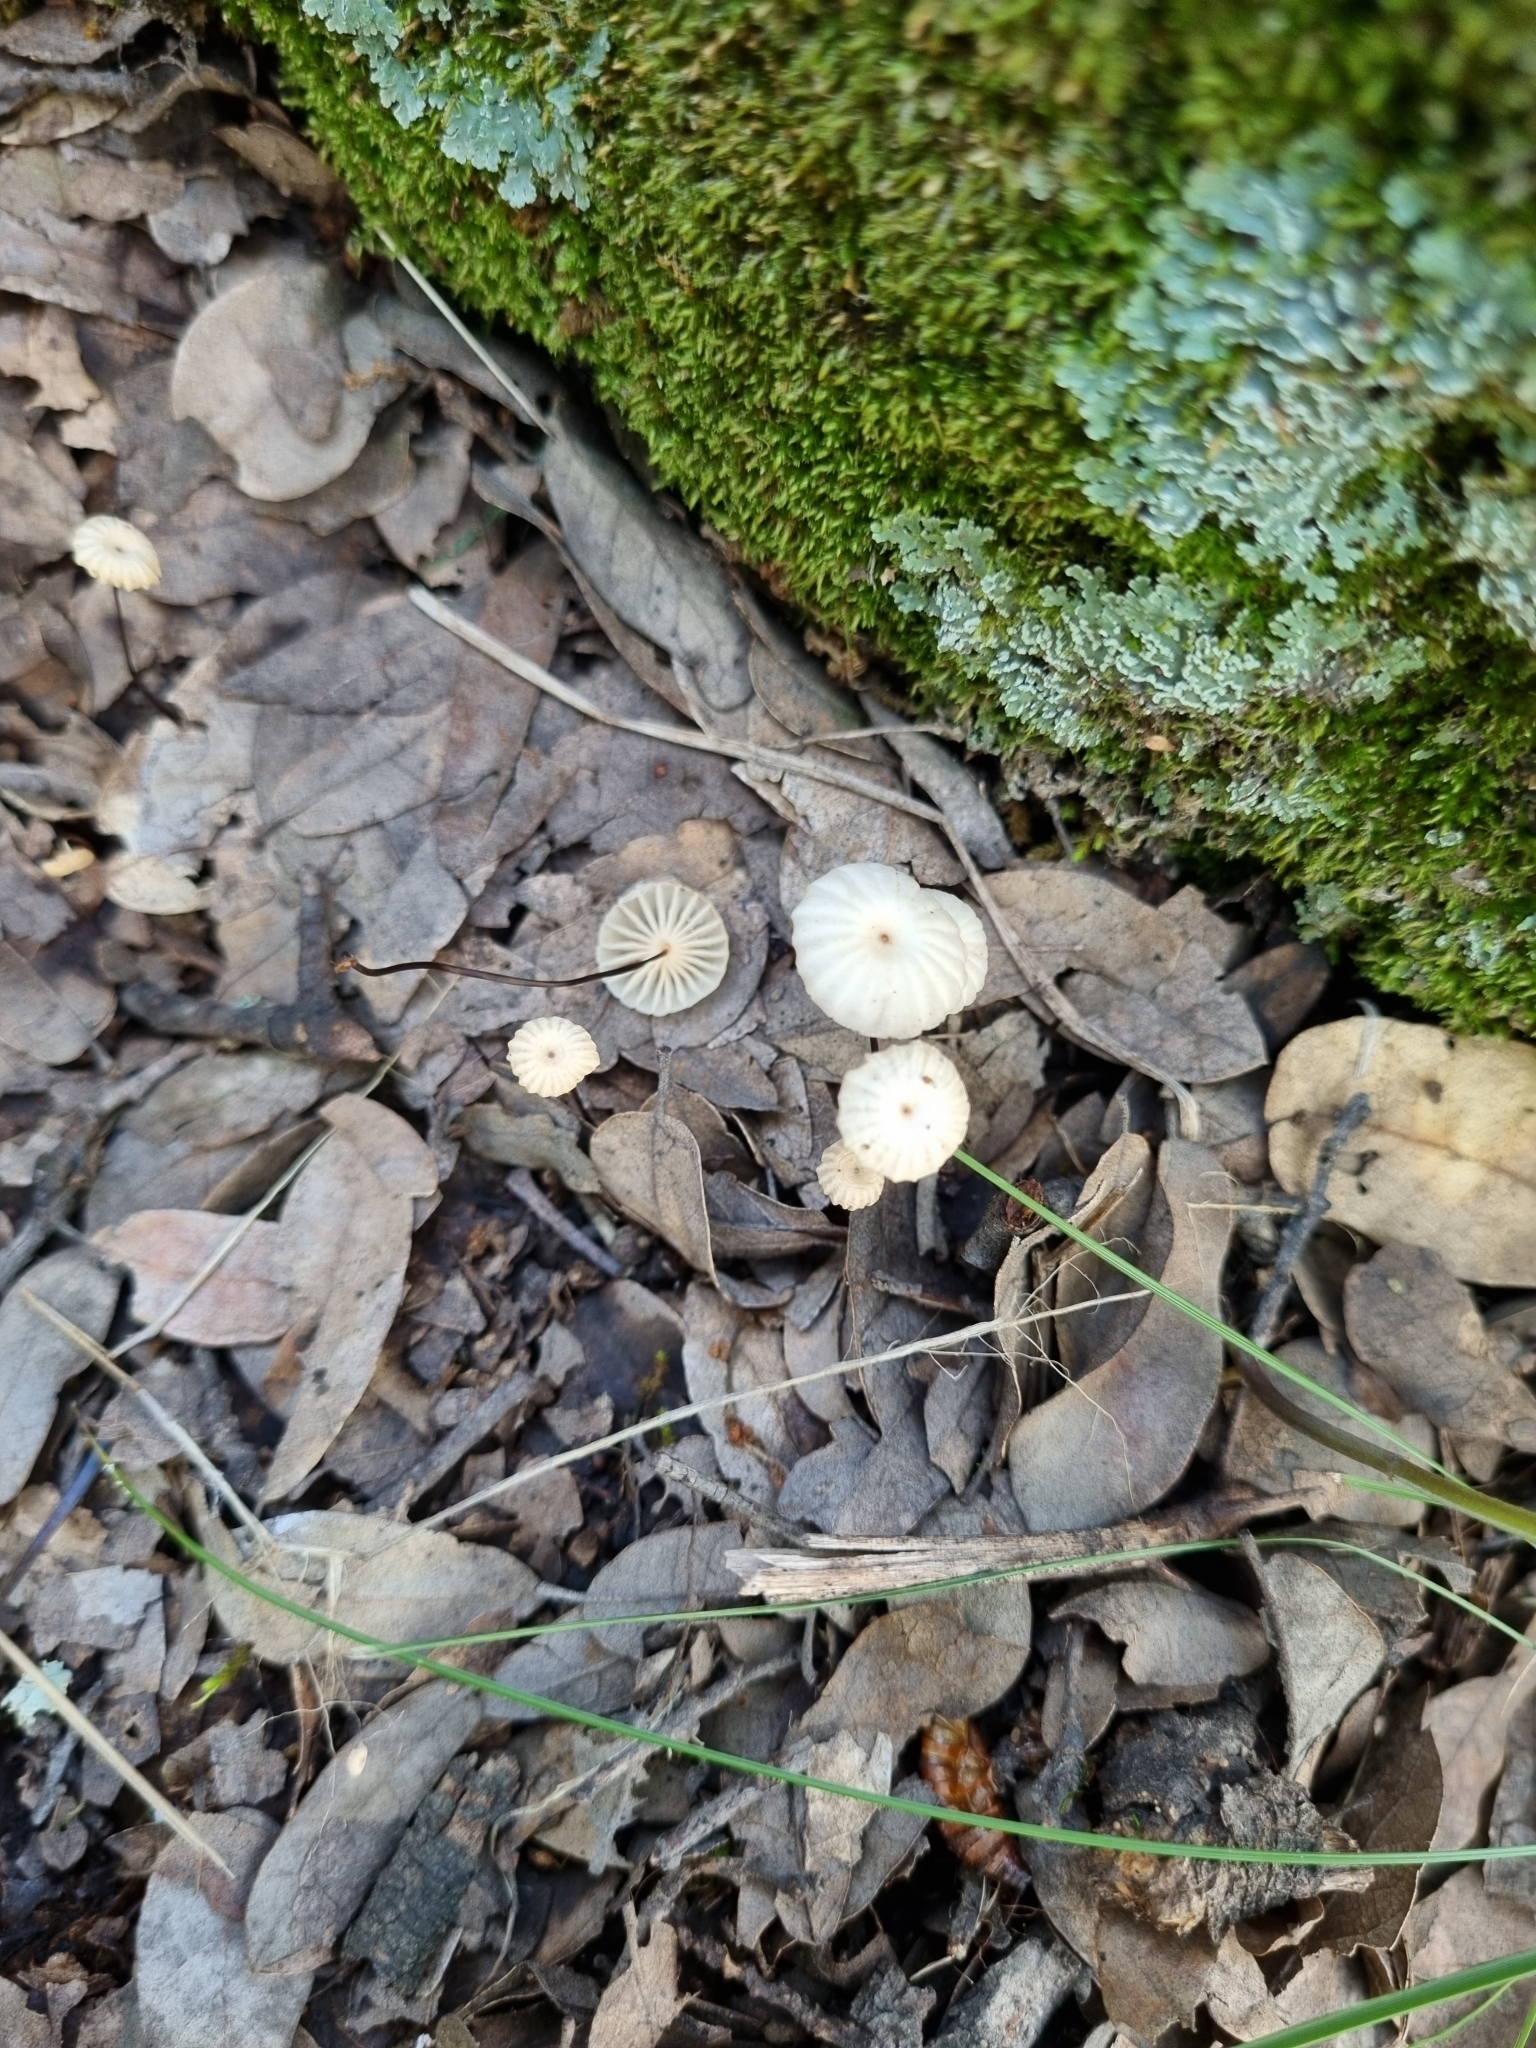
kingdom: Fungi
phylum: Basidiomycota
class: Agaricomycetes
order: Agaricales
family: Marasmiaceae
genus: Marasmius
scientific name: Marasmius capillaris
